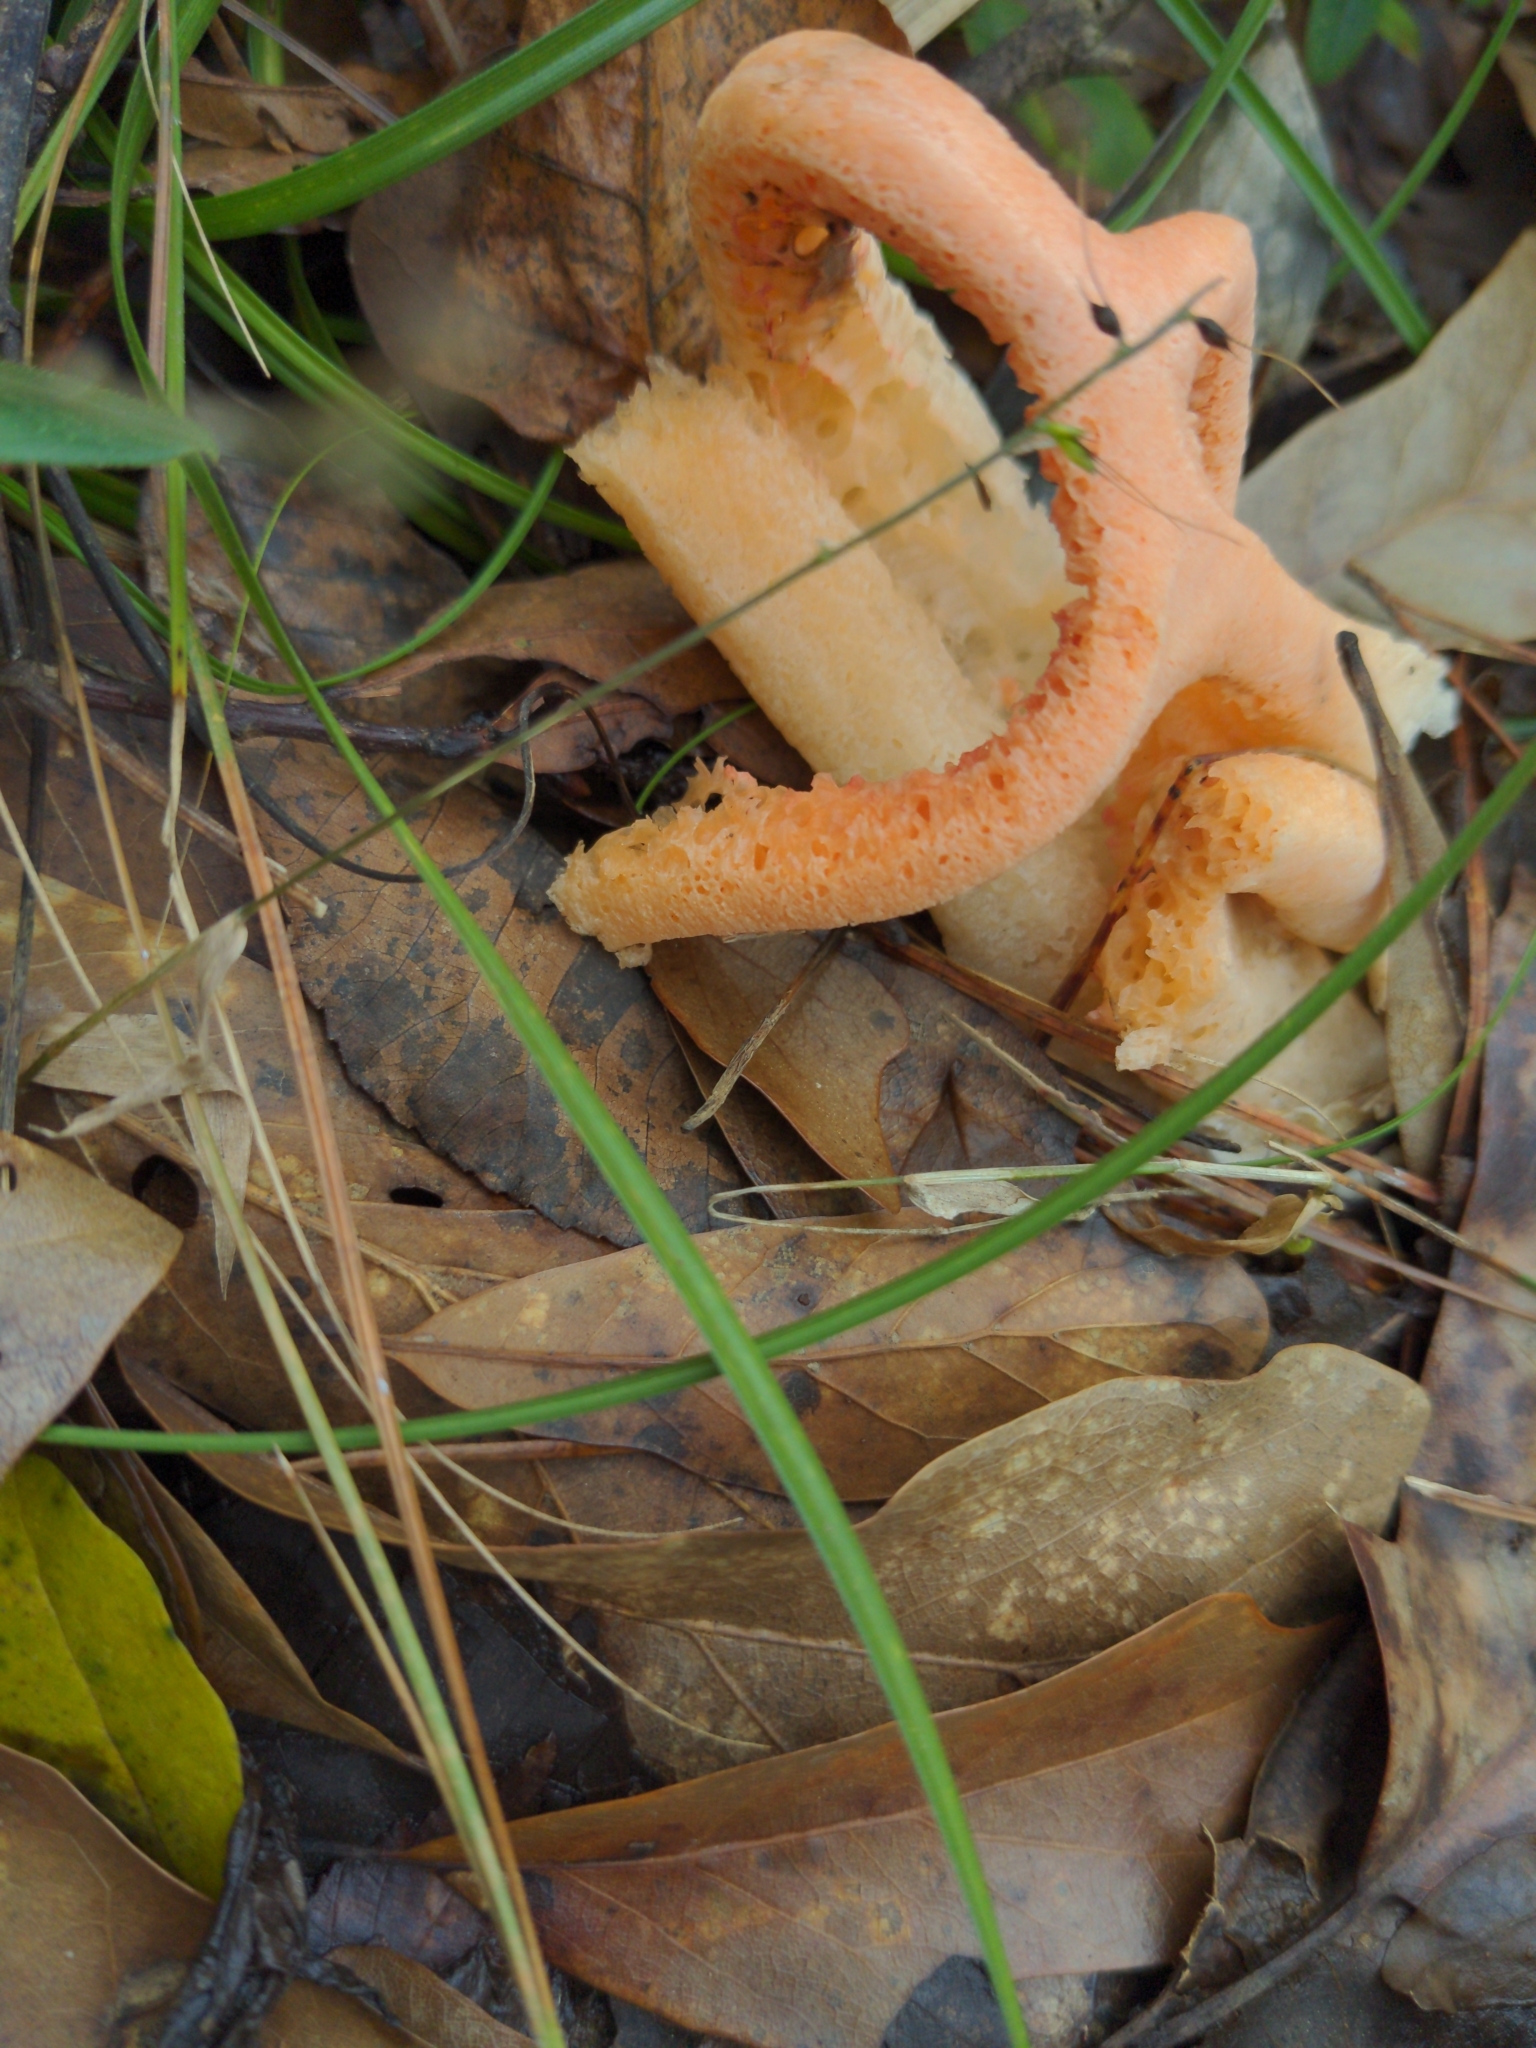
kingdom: Fungi
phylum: Basidiomycota
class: Agaricomycetes
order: Phallales
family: Phallaceae
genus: Clathrus
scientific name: Clathrus columnatus
